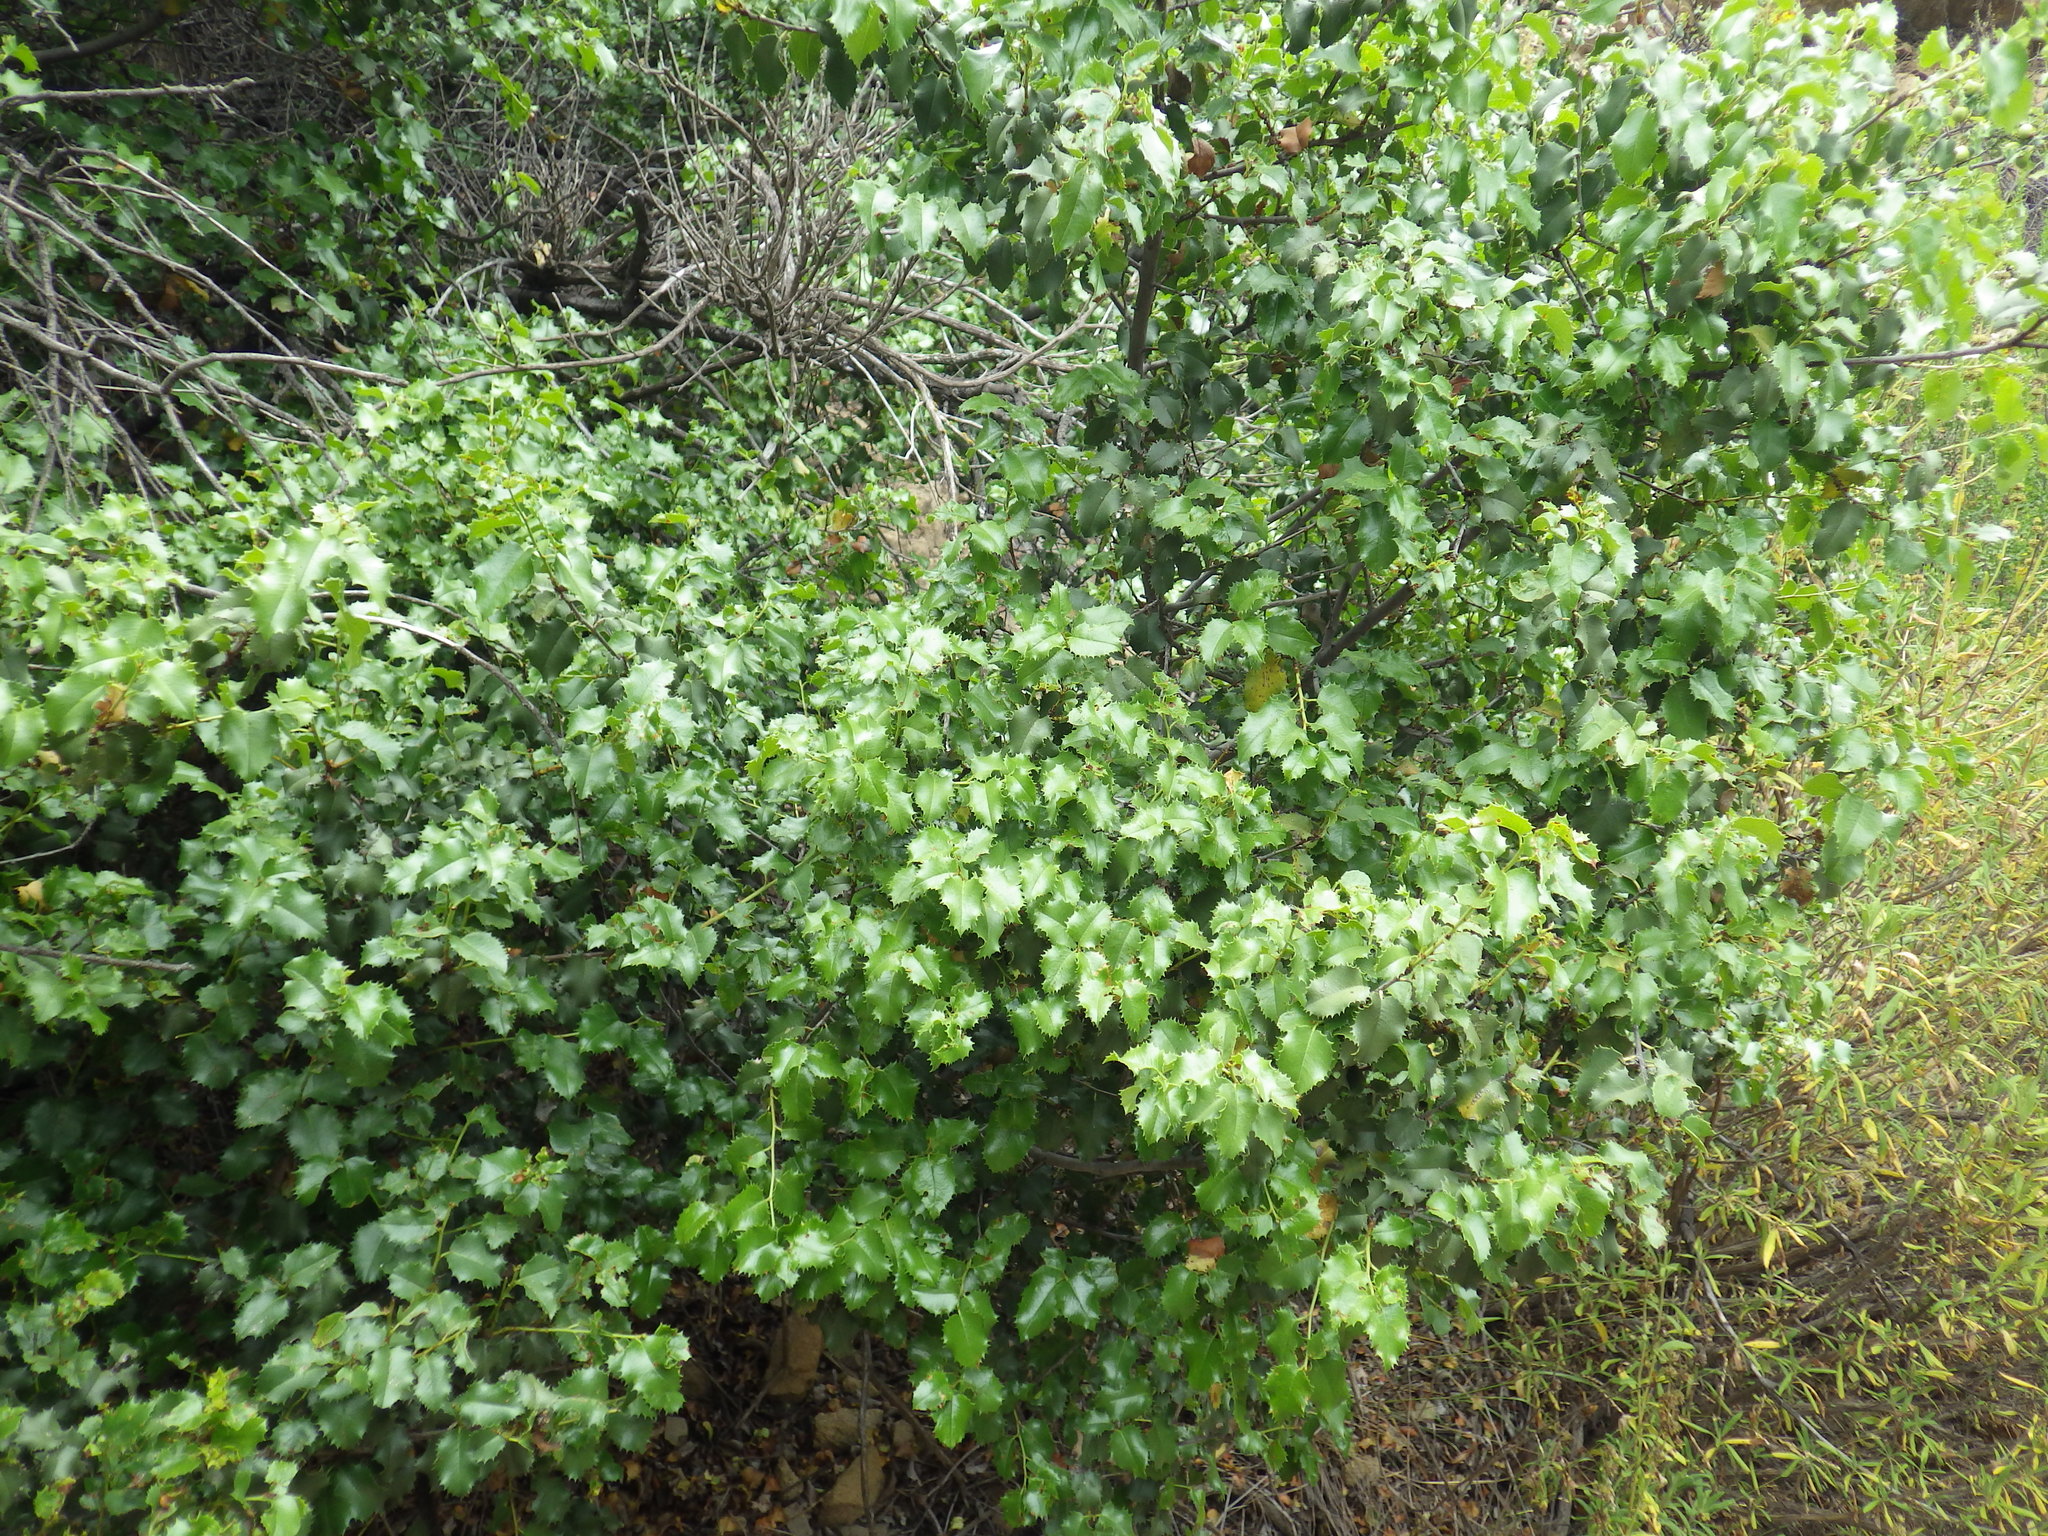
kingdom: Plantae
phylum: Tracheophyta
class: Magnoliopsida
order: Rosales
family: Rosaceae
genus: Prunus
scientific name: Prunus ilicifolia
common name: Hollyleaf cherry
